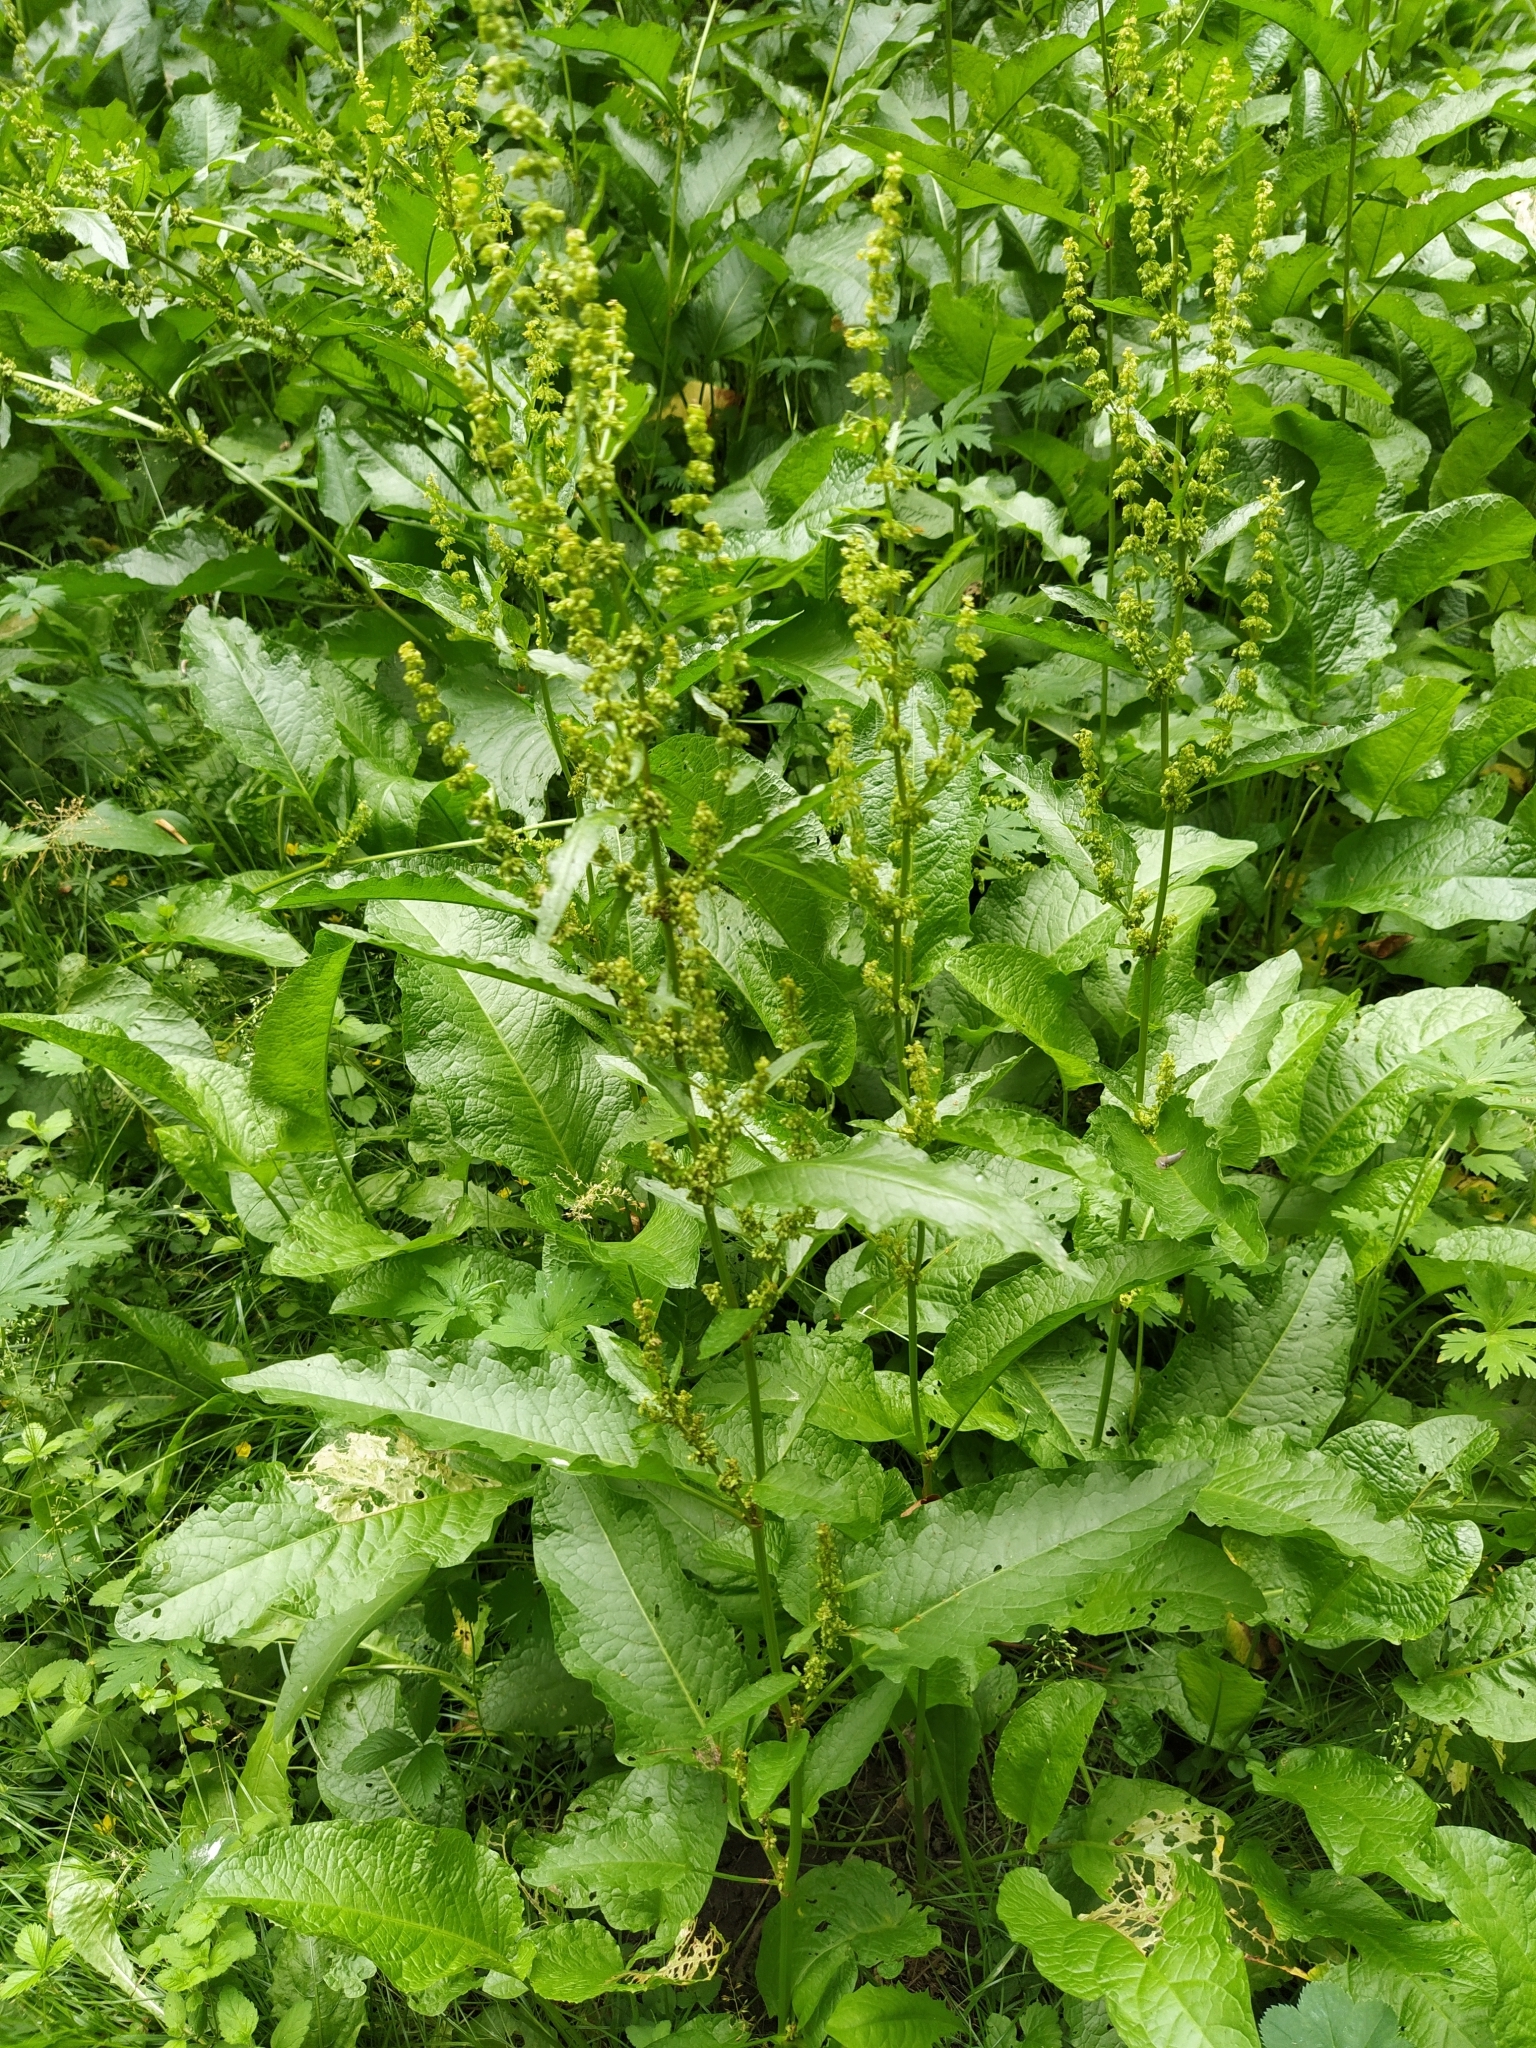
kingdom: Plantae
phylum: Tracheophyta
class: Magnoliopsida
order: Caryophyllales
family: Polygonaceae
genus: Rumex
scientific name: Rumex obtusifolius
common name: Bitter dock
